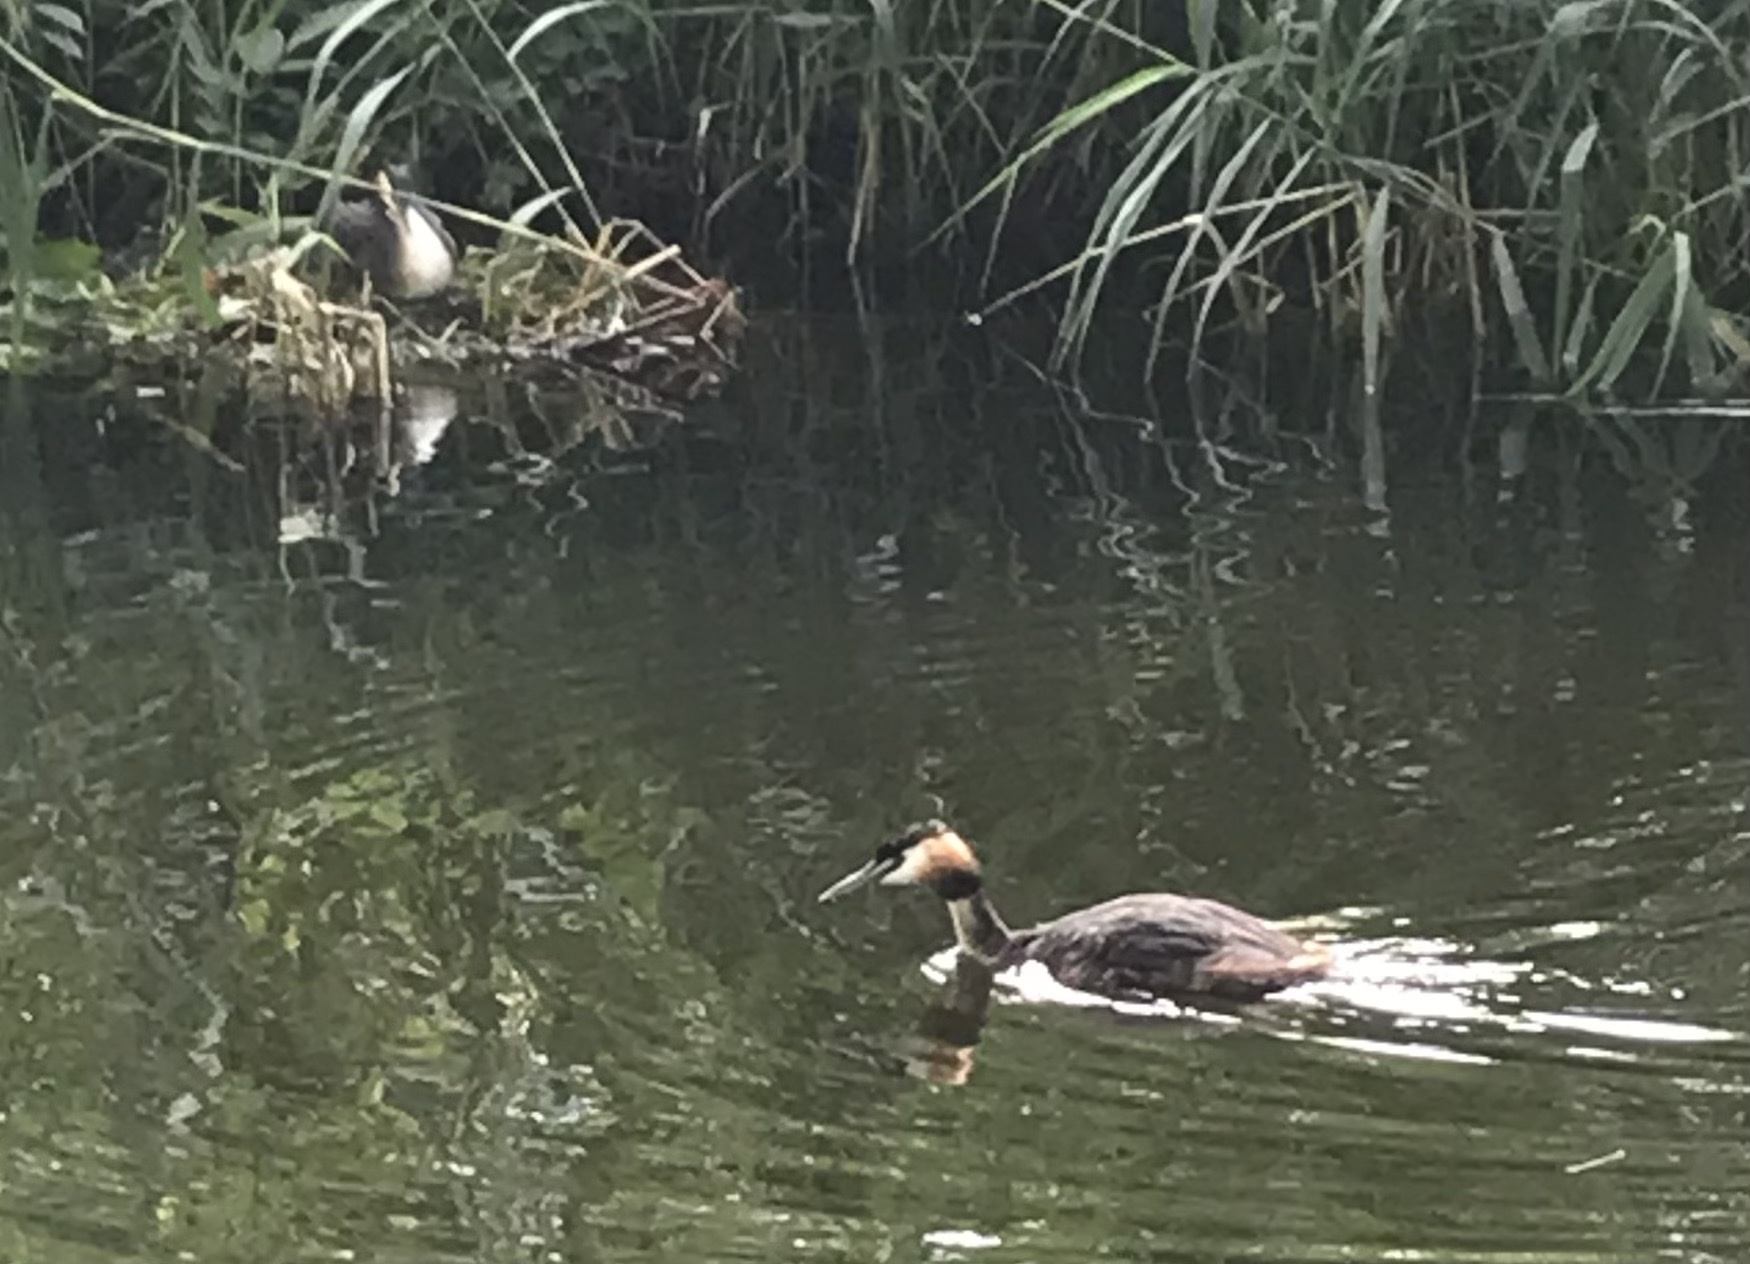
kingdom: Animalia
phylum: Chordata
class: Aves
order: Podicipediformes
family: Podicipedidae
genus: Podiceps
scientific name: Podiceps cristatus
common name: Great crested grebe
